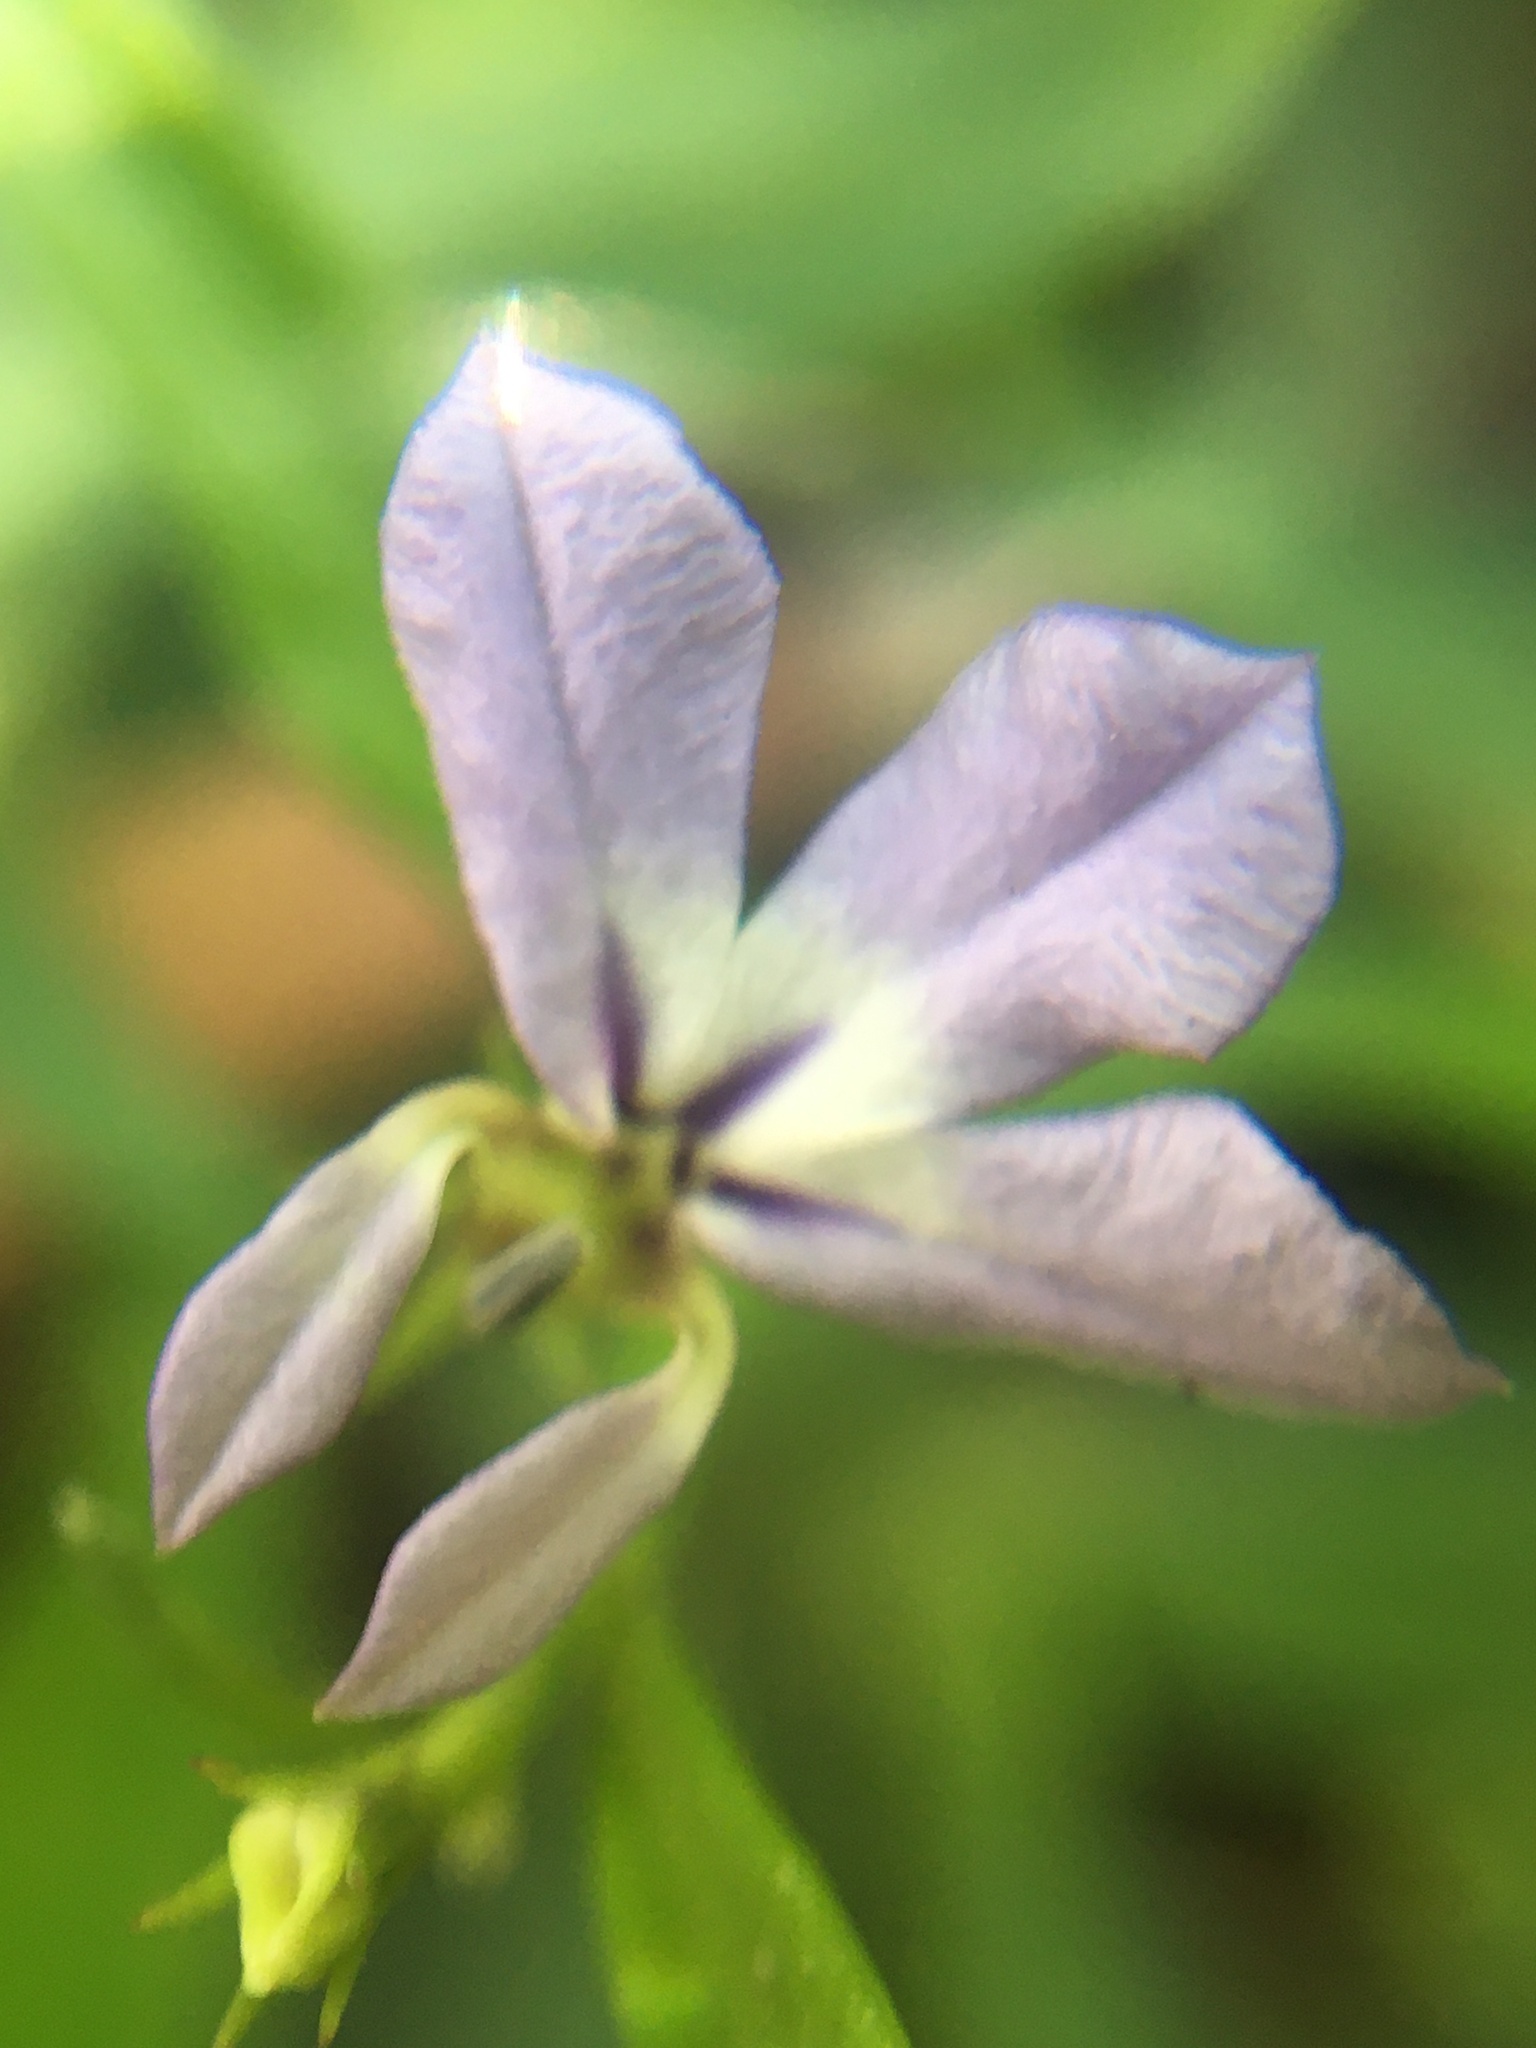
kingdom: Plantae
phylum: Tracheophyta
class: Magnoliopsida
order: Asterales
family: Campanulaceae
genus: Lobelia
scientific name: Lobelia anceps
